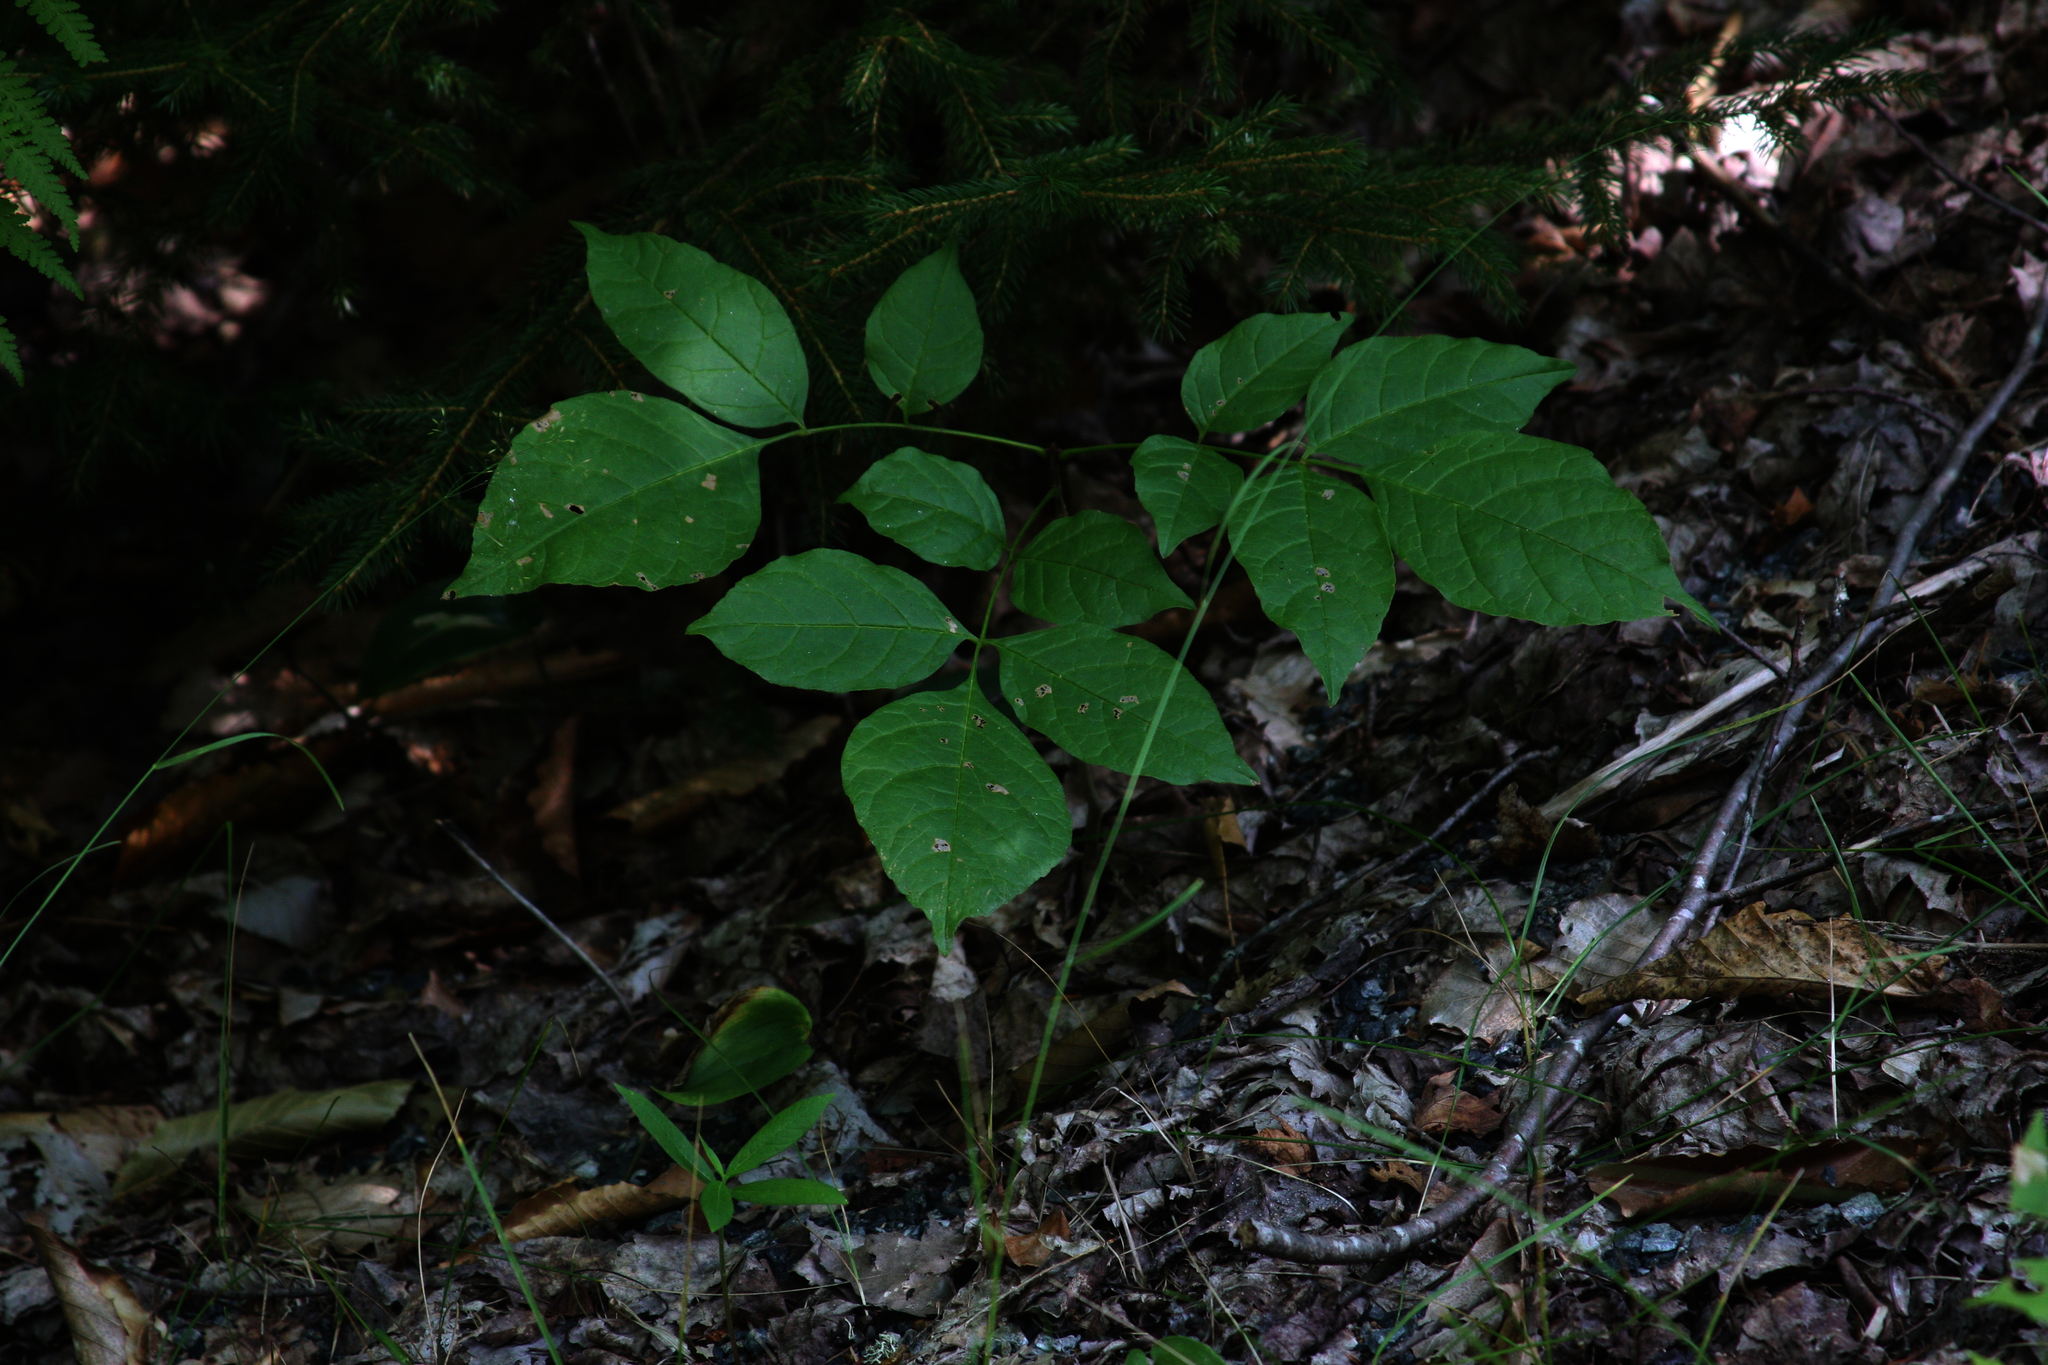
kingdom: Plantae
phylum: Tracheophyta
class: Magnoliopsida
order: Apiales
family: Araliaceae
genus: Aralia
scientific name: Aralia nudicaulis
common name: Wild sarsaparilla
